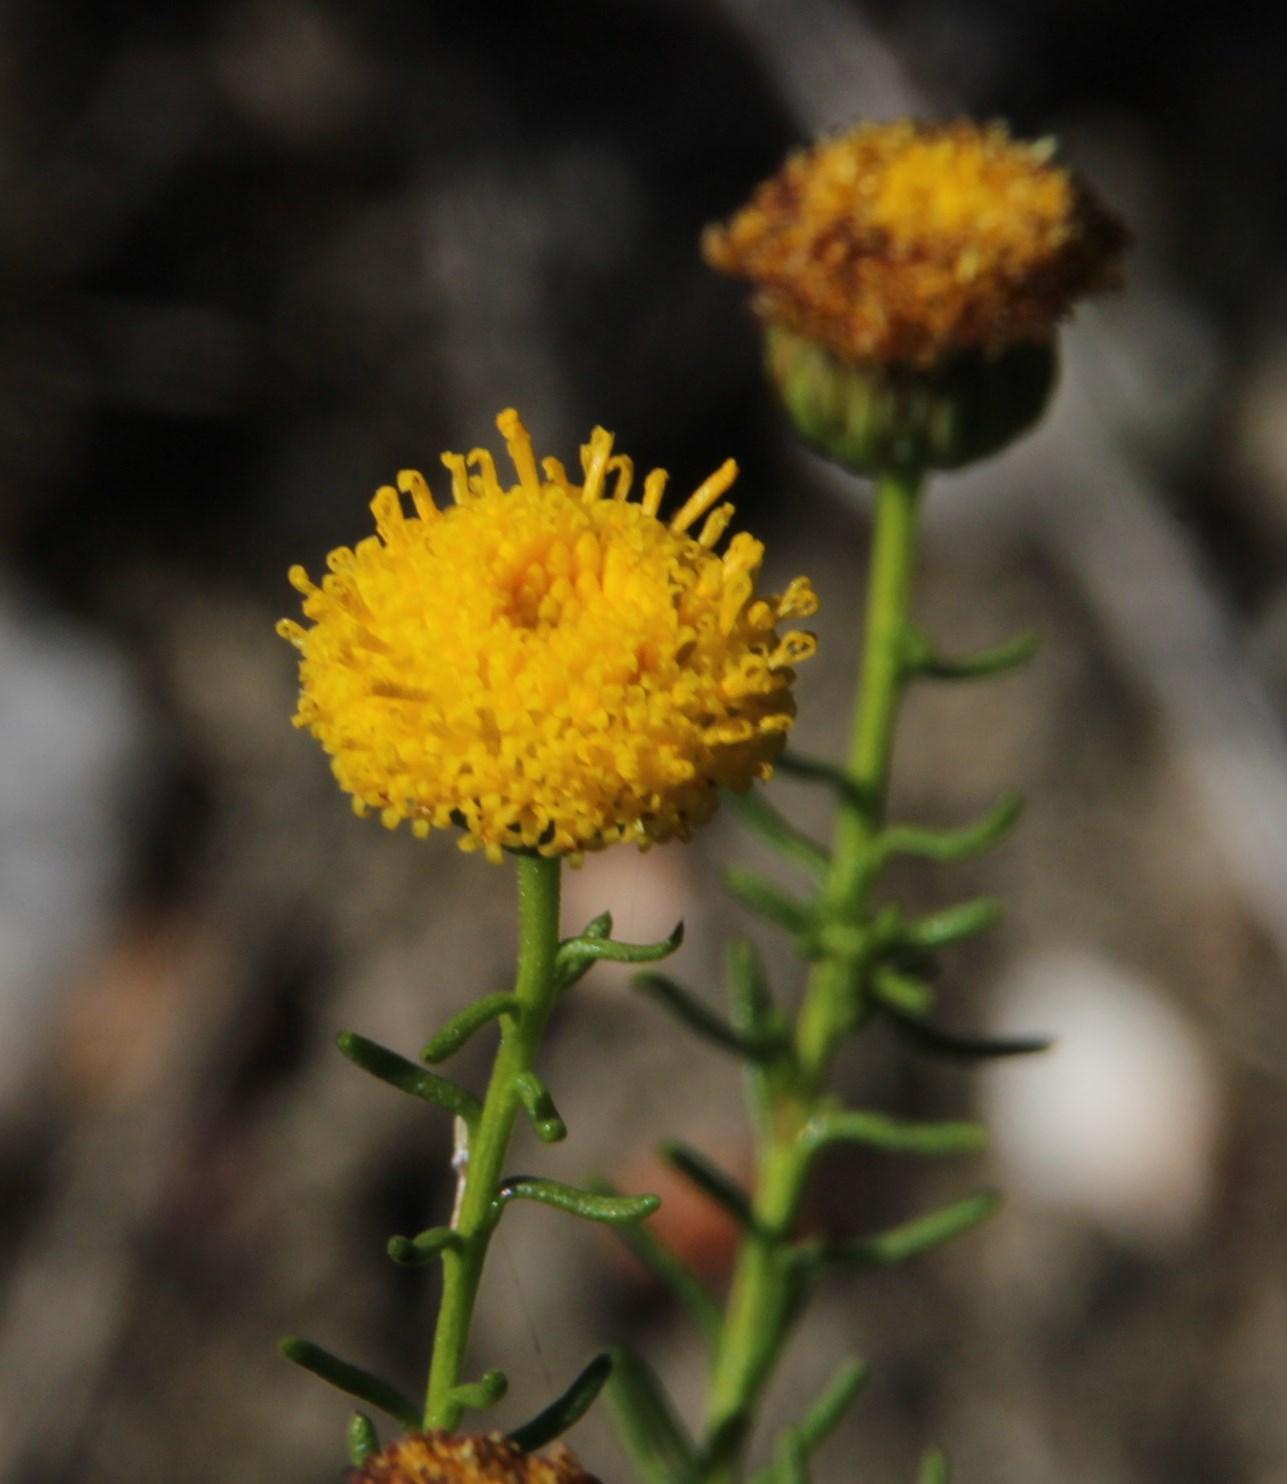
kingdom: Plantae
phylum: Tracheophyta
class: Magnoliopsida
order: Asterales
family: Asteraceae
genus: Chrysocoma
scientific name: Chrysocoma ciliata
